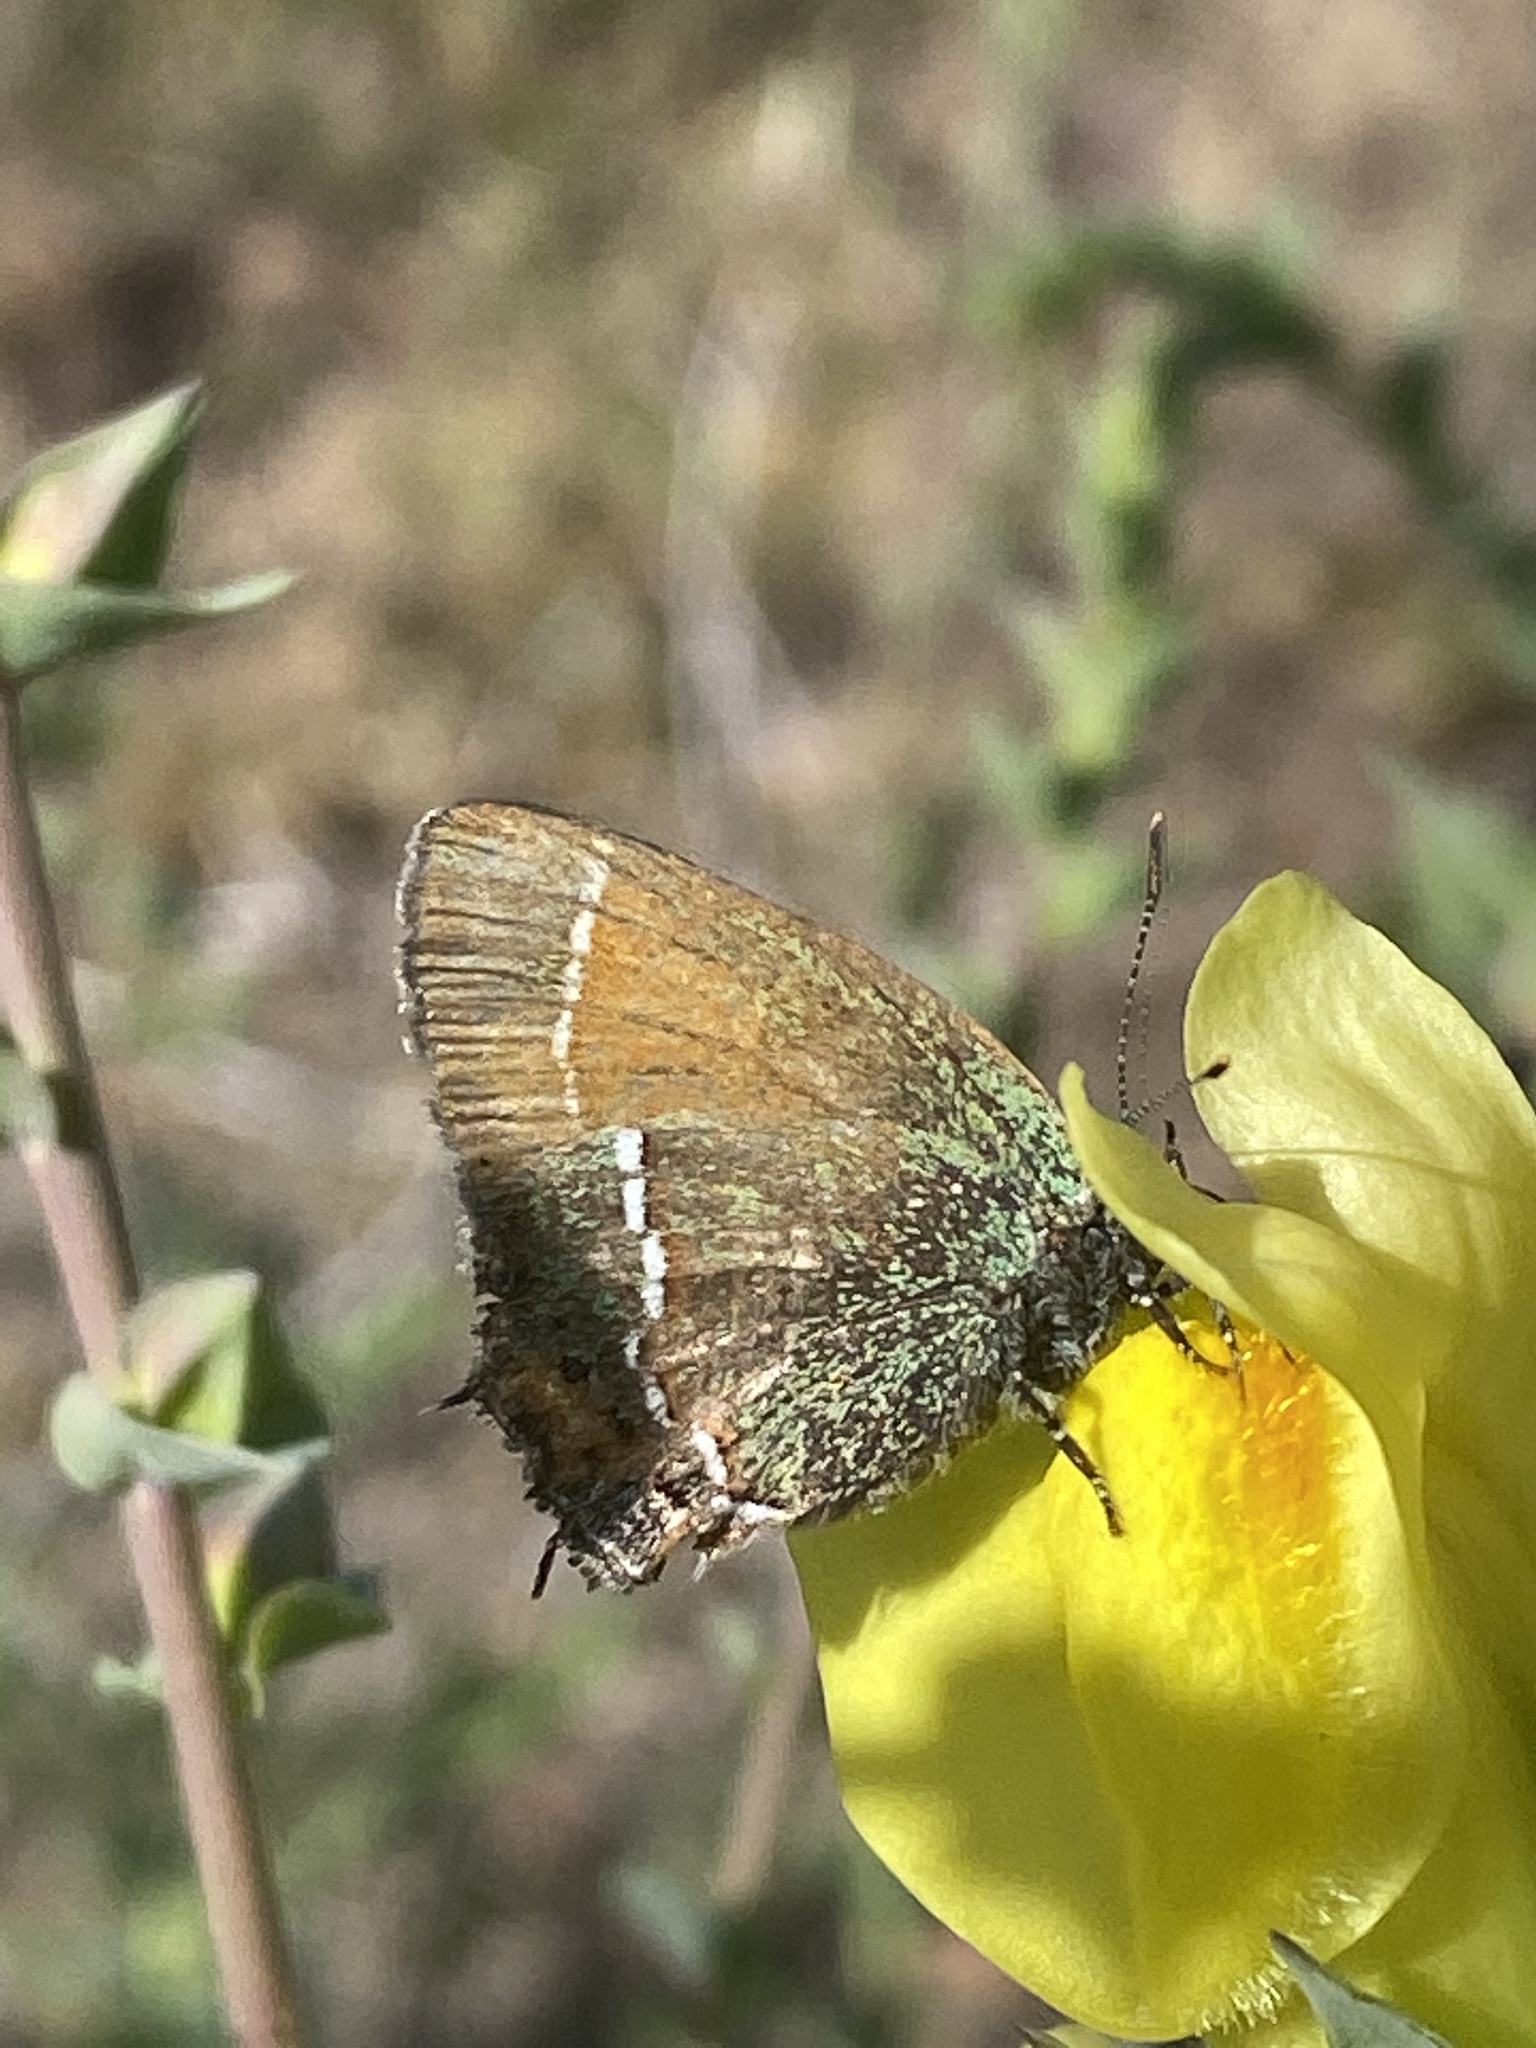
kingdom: Animalia
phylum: Arthropoda
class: Insecta
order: Lepidoptera
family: Lycaenidae
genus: Mitoura
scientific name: Mitoura gryneus
